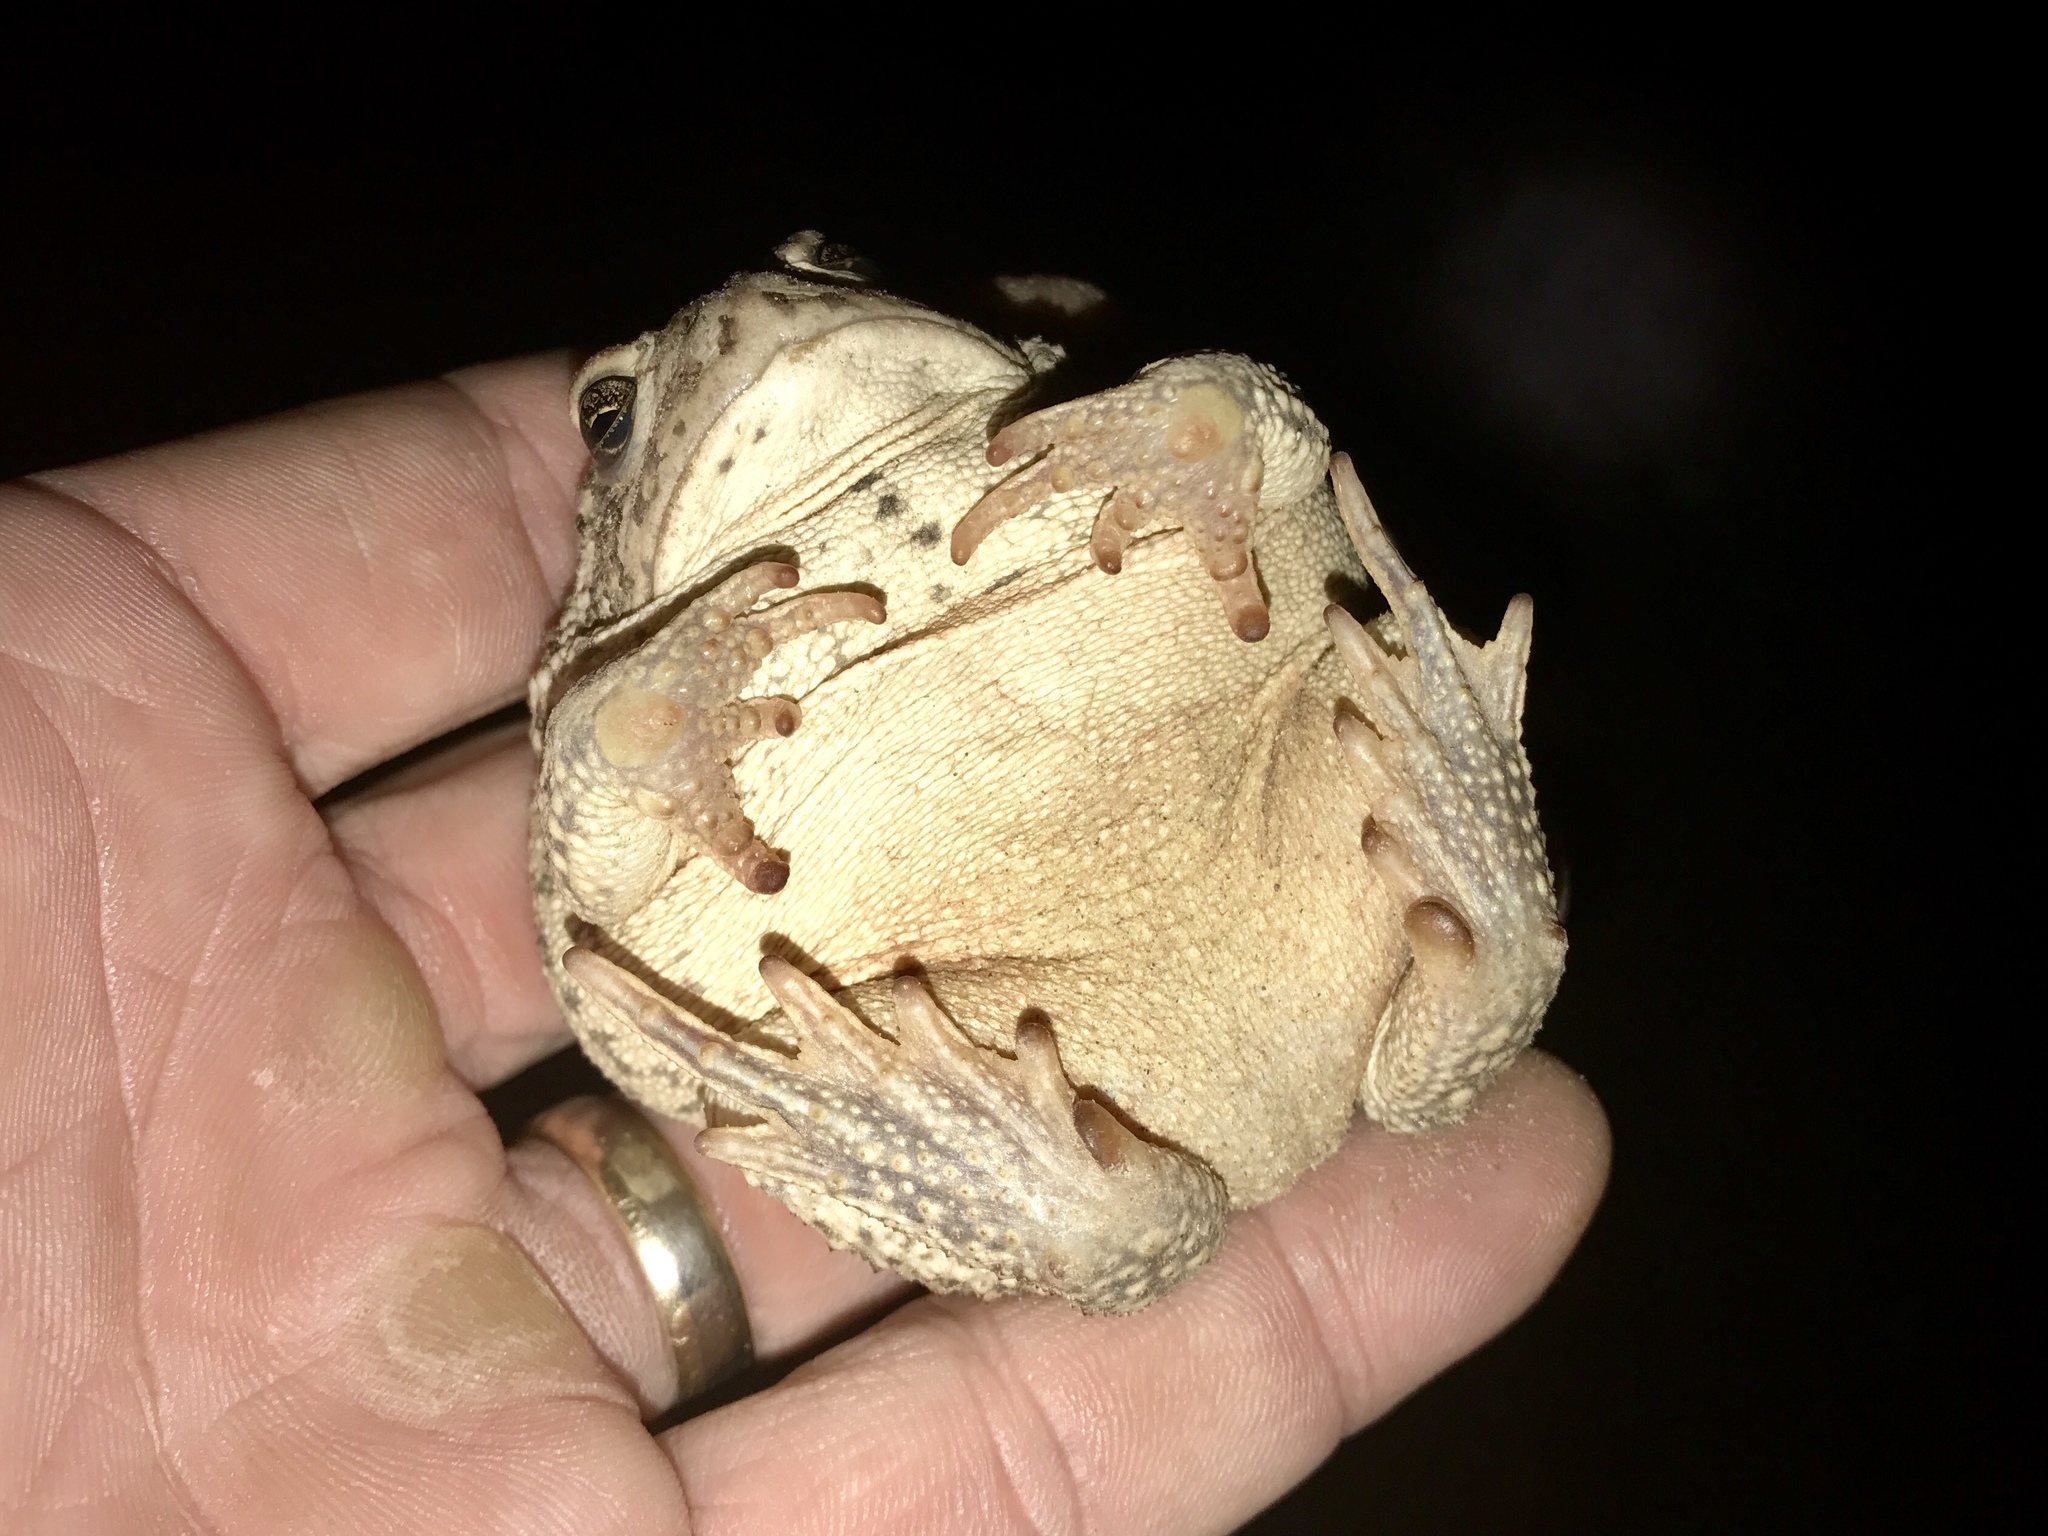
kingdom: Animalia
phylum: Chordata
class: Amphibia
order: Anura
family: Bufonidae
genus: Anaxyrus
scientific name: Anaxyrus woodhousii
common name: Woodhouse's toad
